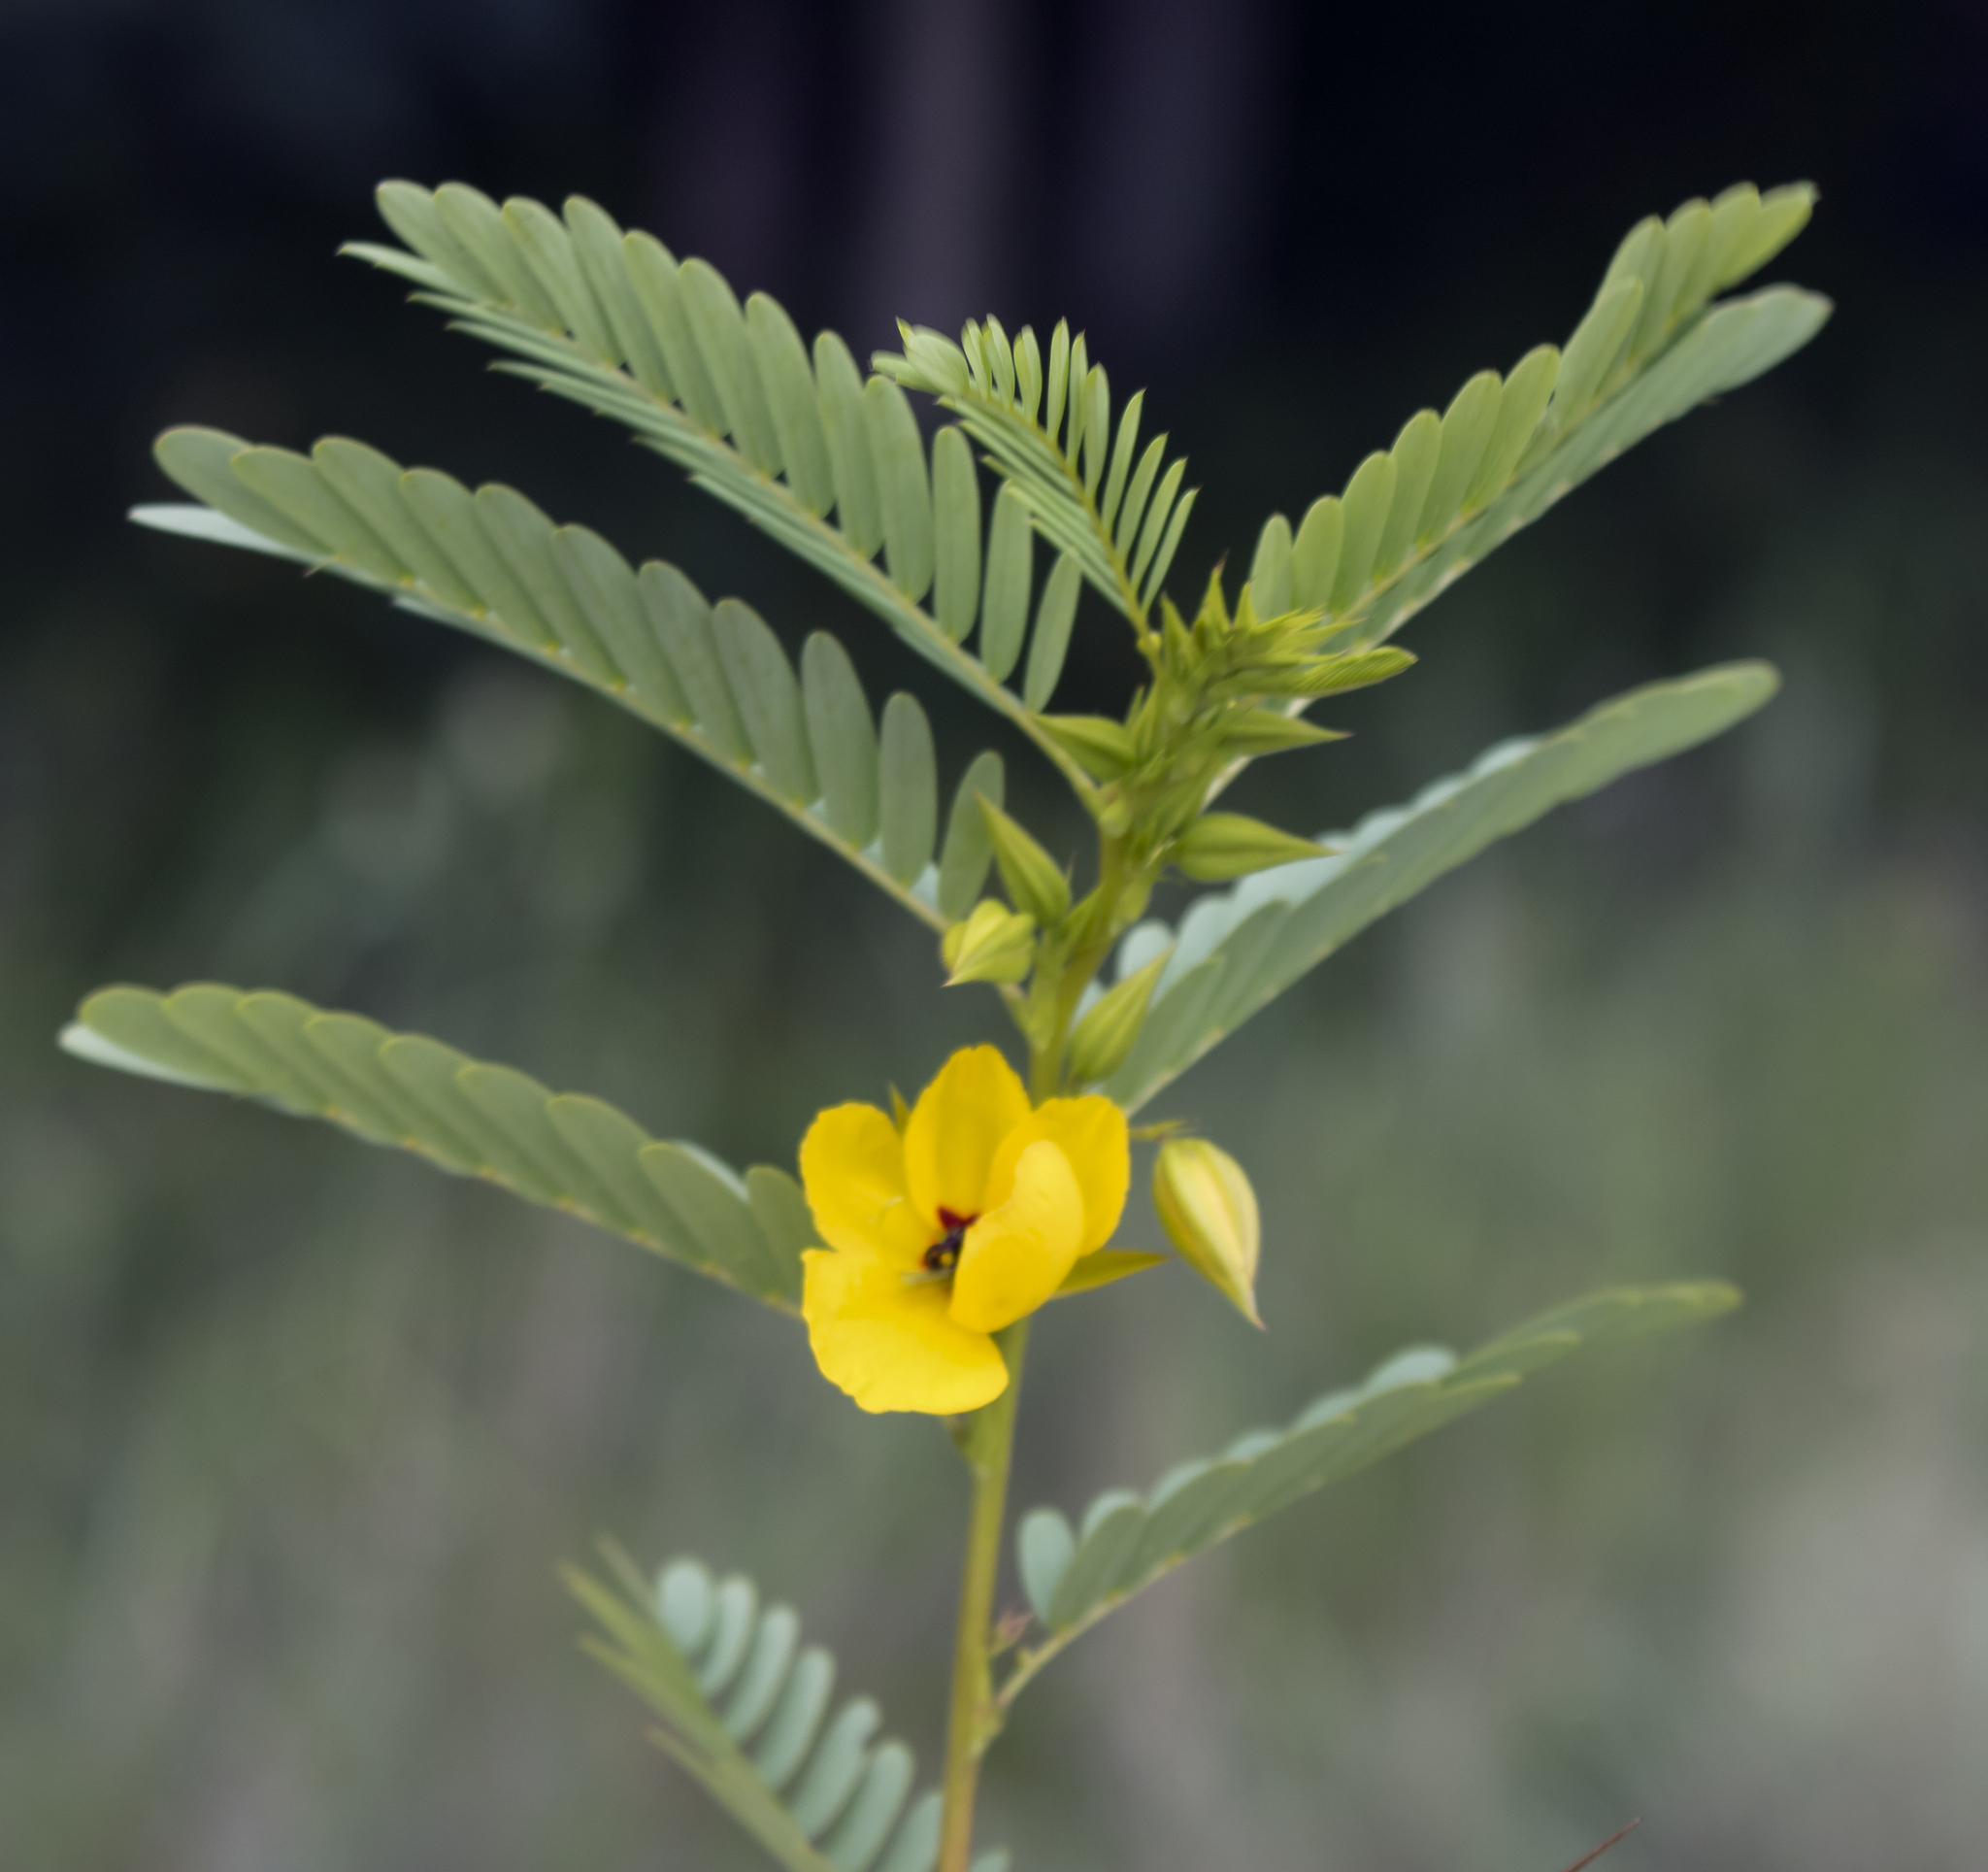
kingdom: Plantae
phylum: Tracheophyta
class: Magnoliopsida
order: Fabales
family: Fabaceae
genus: Chamaecrista
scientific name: Chamaecrista fasciculata
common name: Golden cassia
